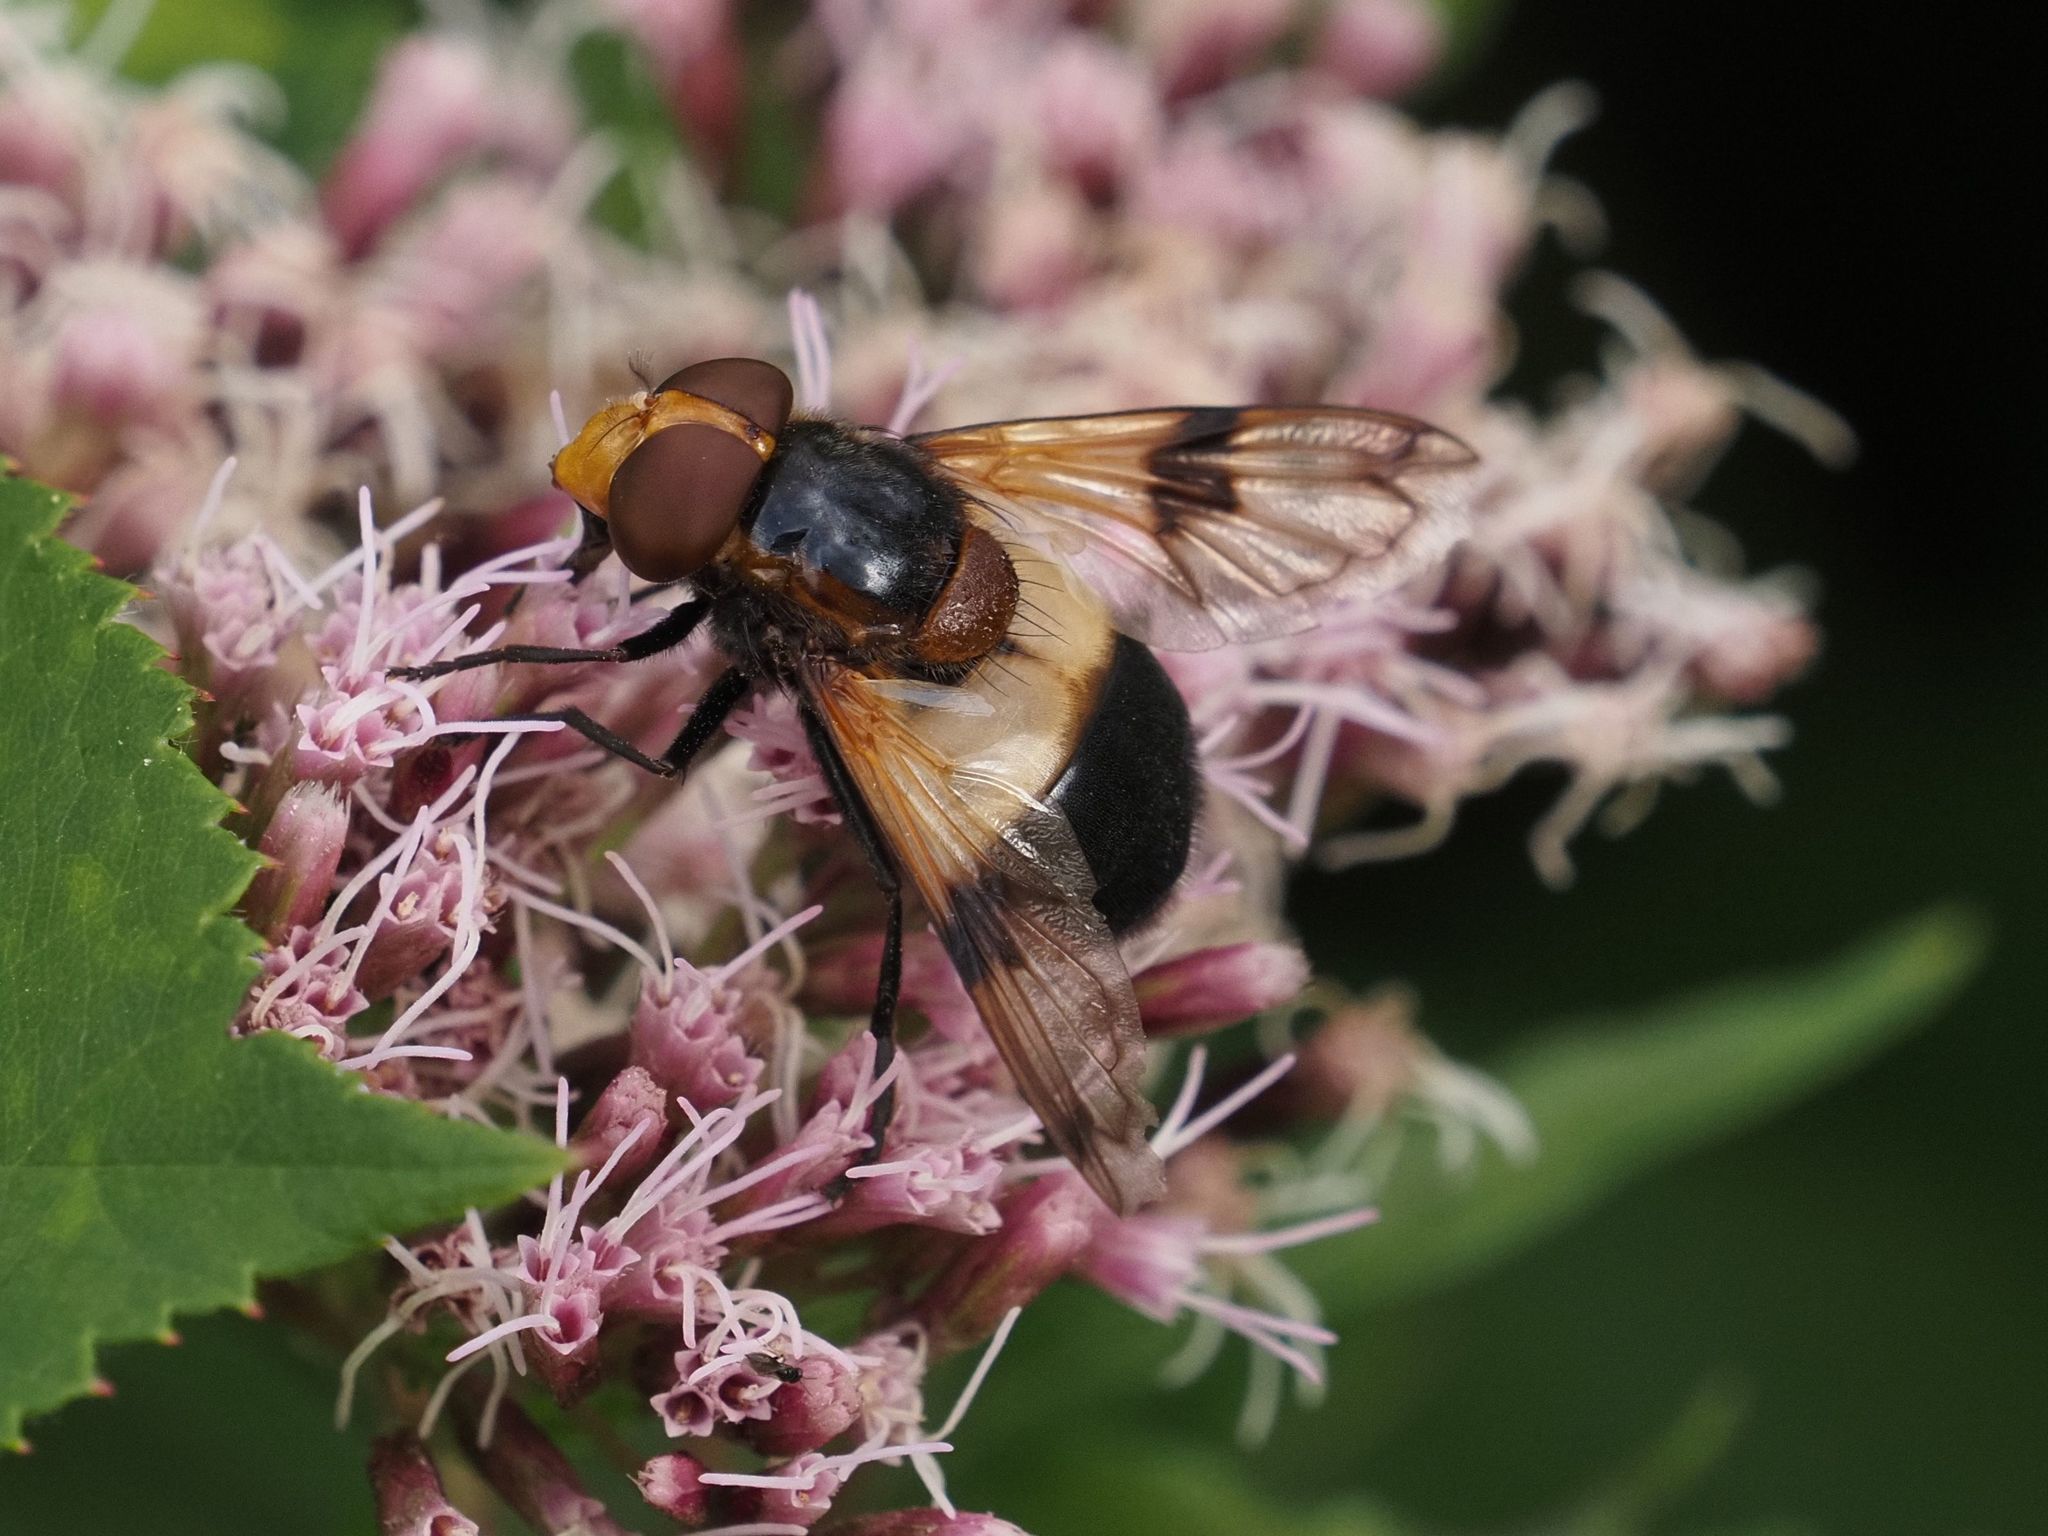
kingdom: Animalia
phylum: Arthropoda
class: Insecta
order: Diptera
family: Syrphidae
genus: Volucella
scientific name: Volucella pellucens
